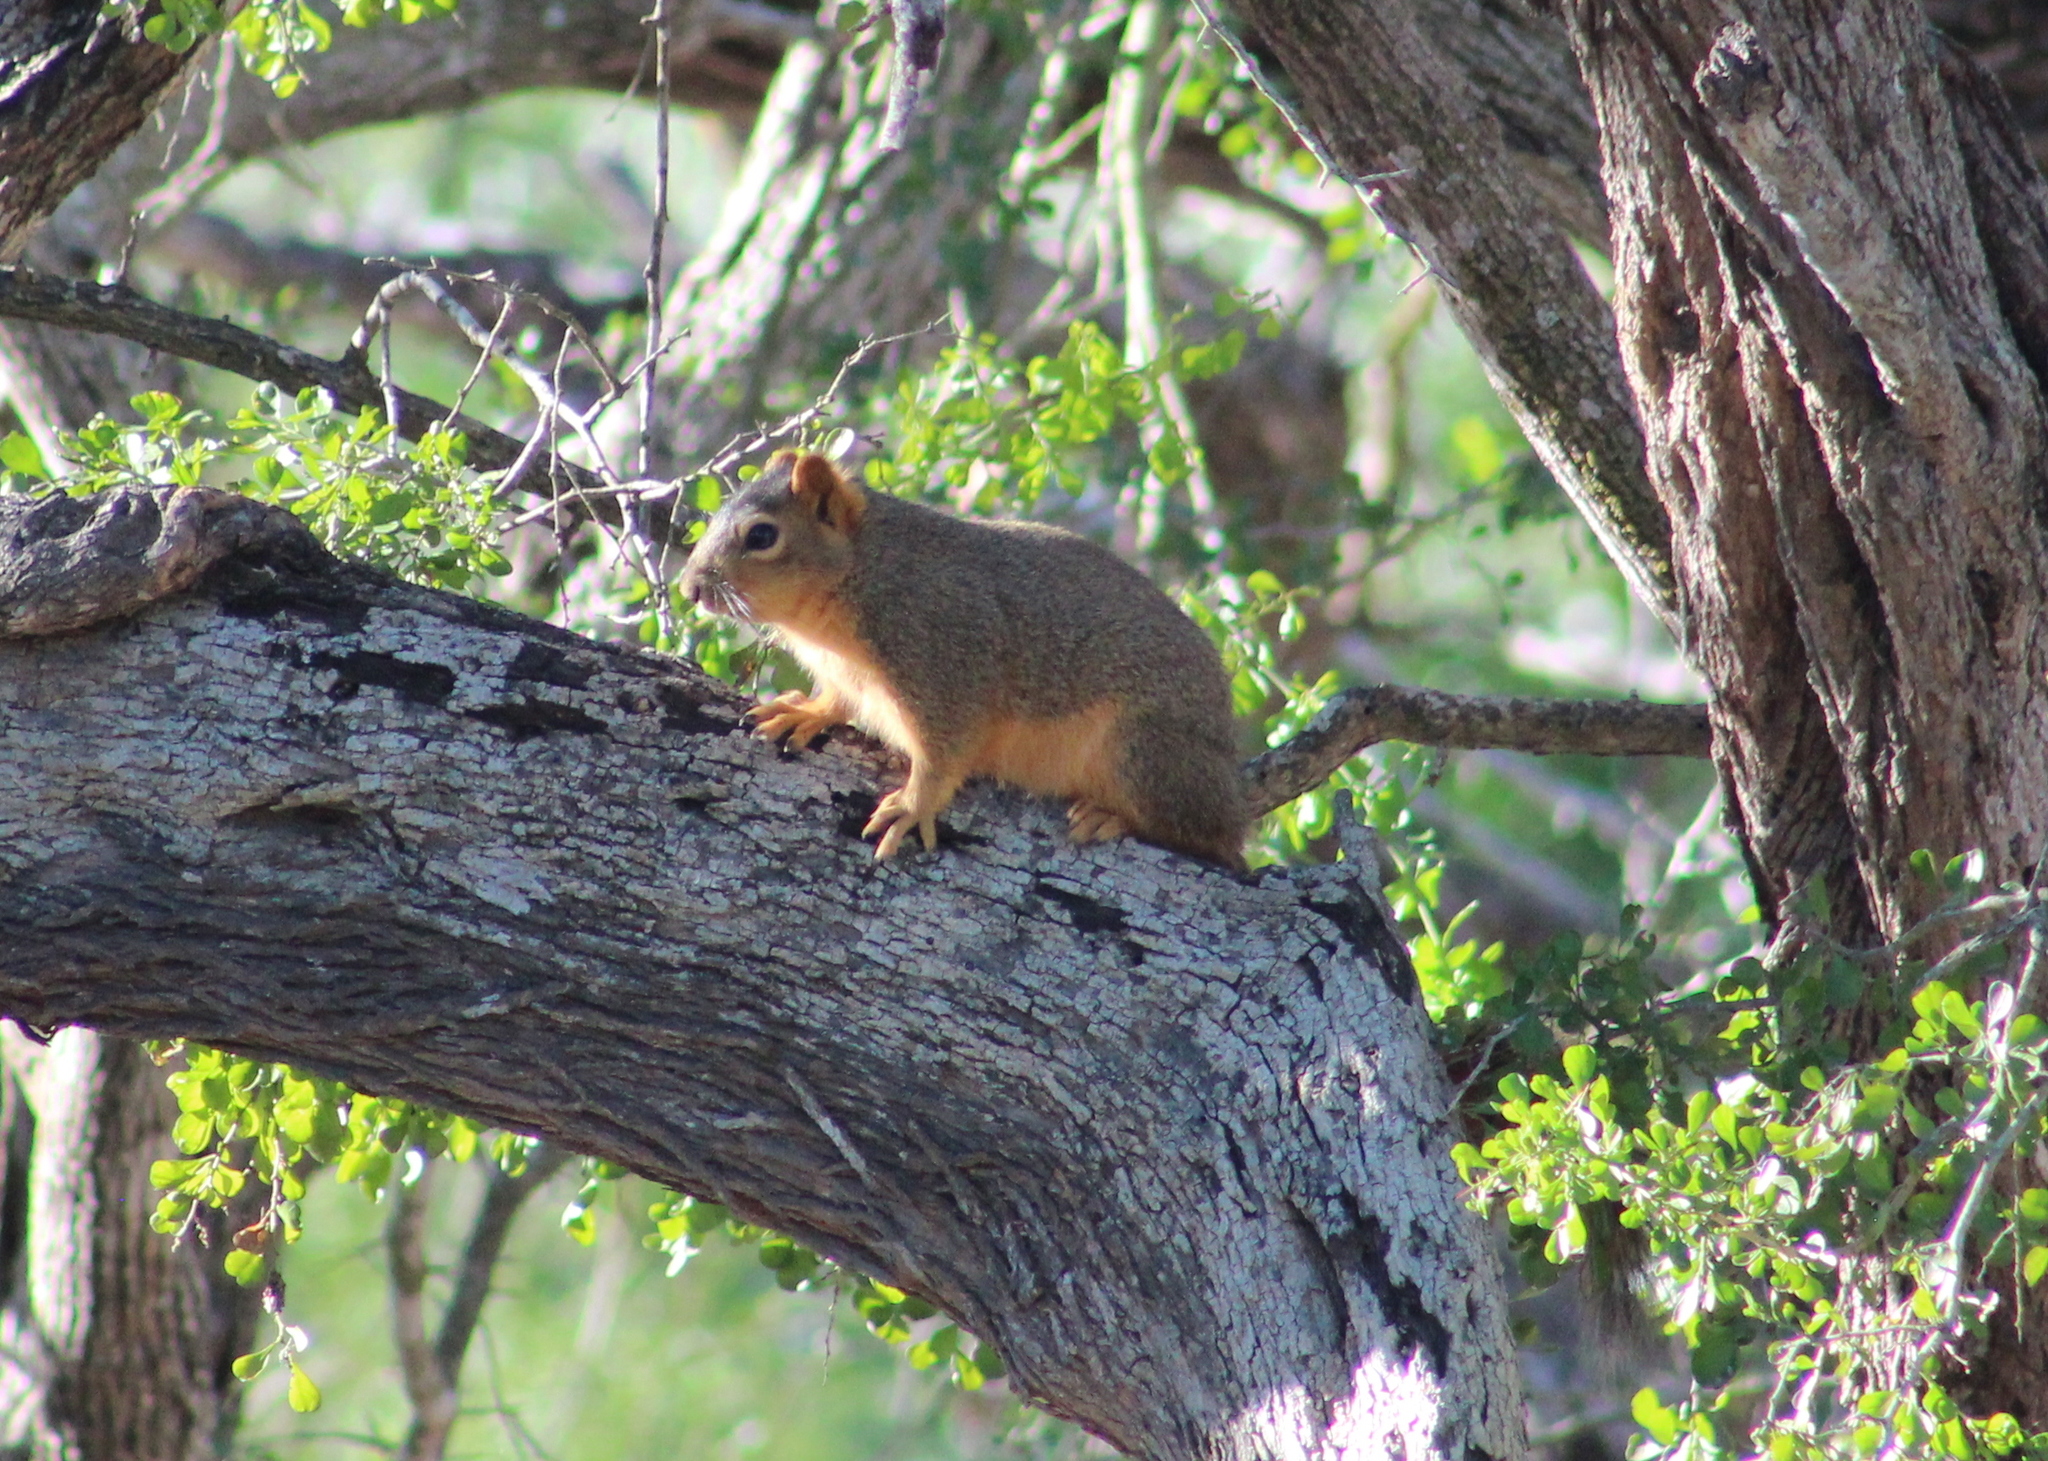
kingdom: Animalia
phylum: Chordata
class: Mammalia
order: Rodentia
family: Sciuridae
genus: Sciurus
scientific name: Sciurus niger
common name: Fox squirrel
